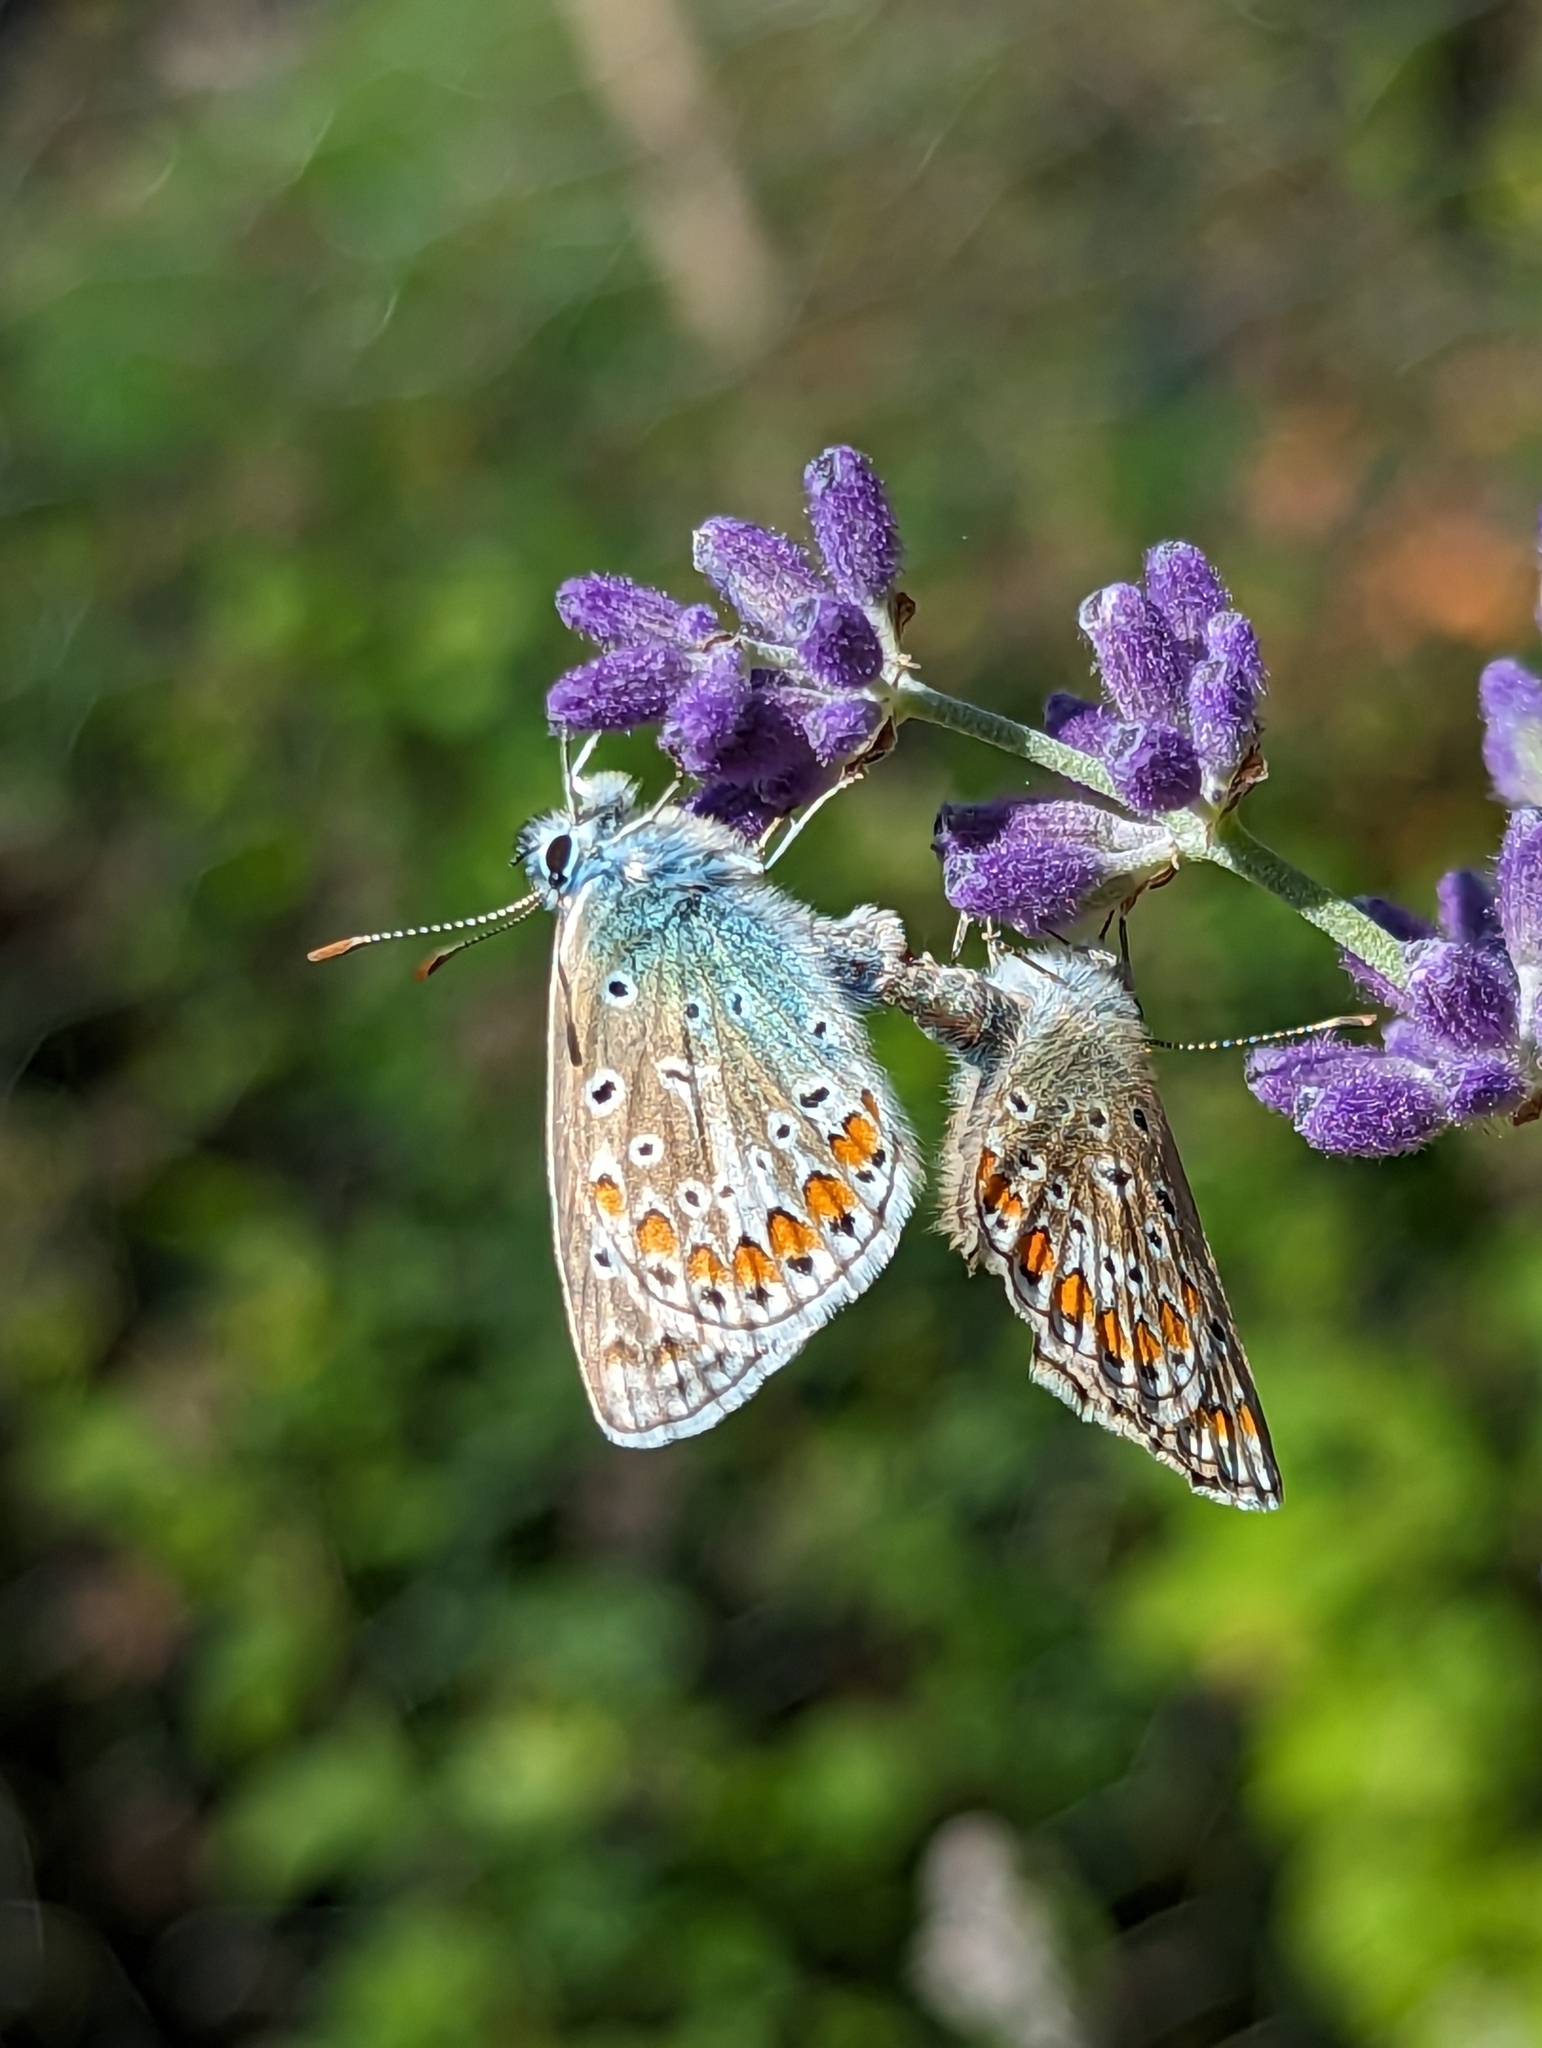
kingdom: Animalia
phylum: Arthropoda
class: Insecta
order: Lepidoptera
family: Lycaenidae
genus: Polyommatus
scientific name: Polyommatus icarus
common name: Common blue
